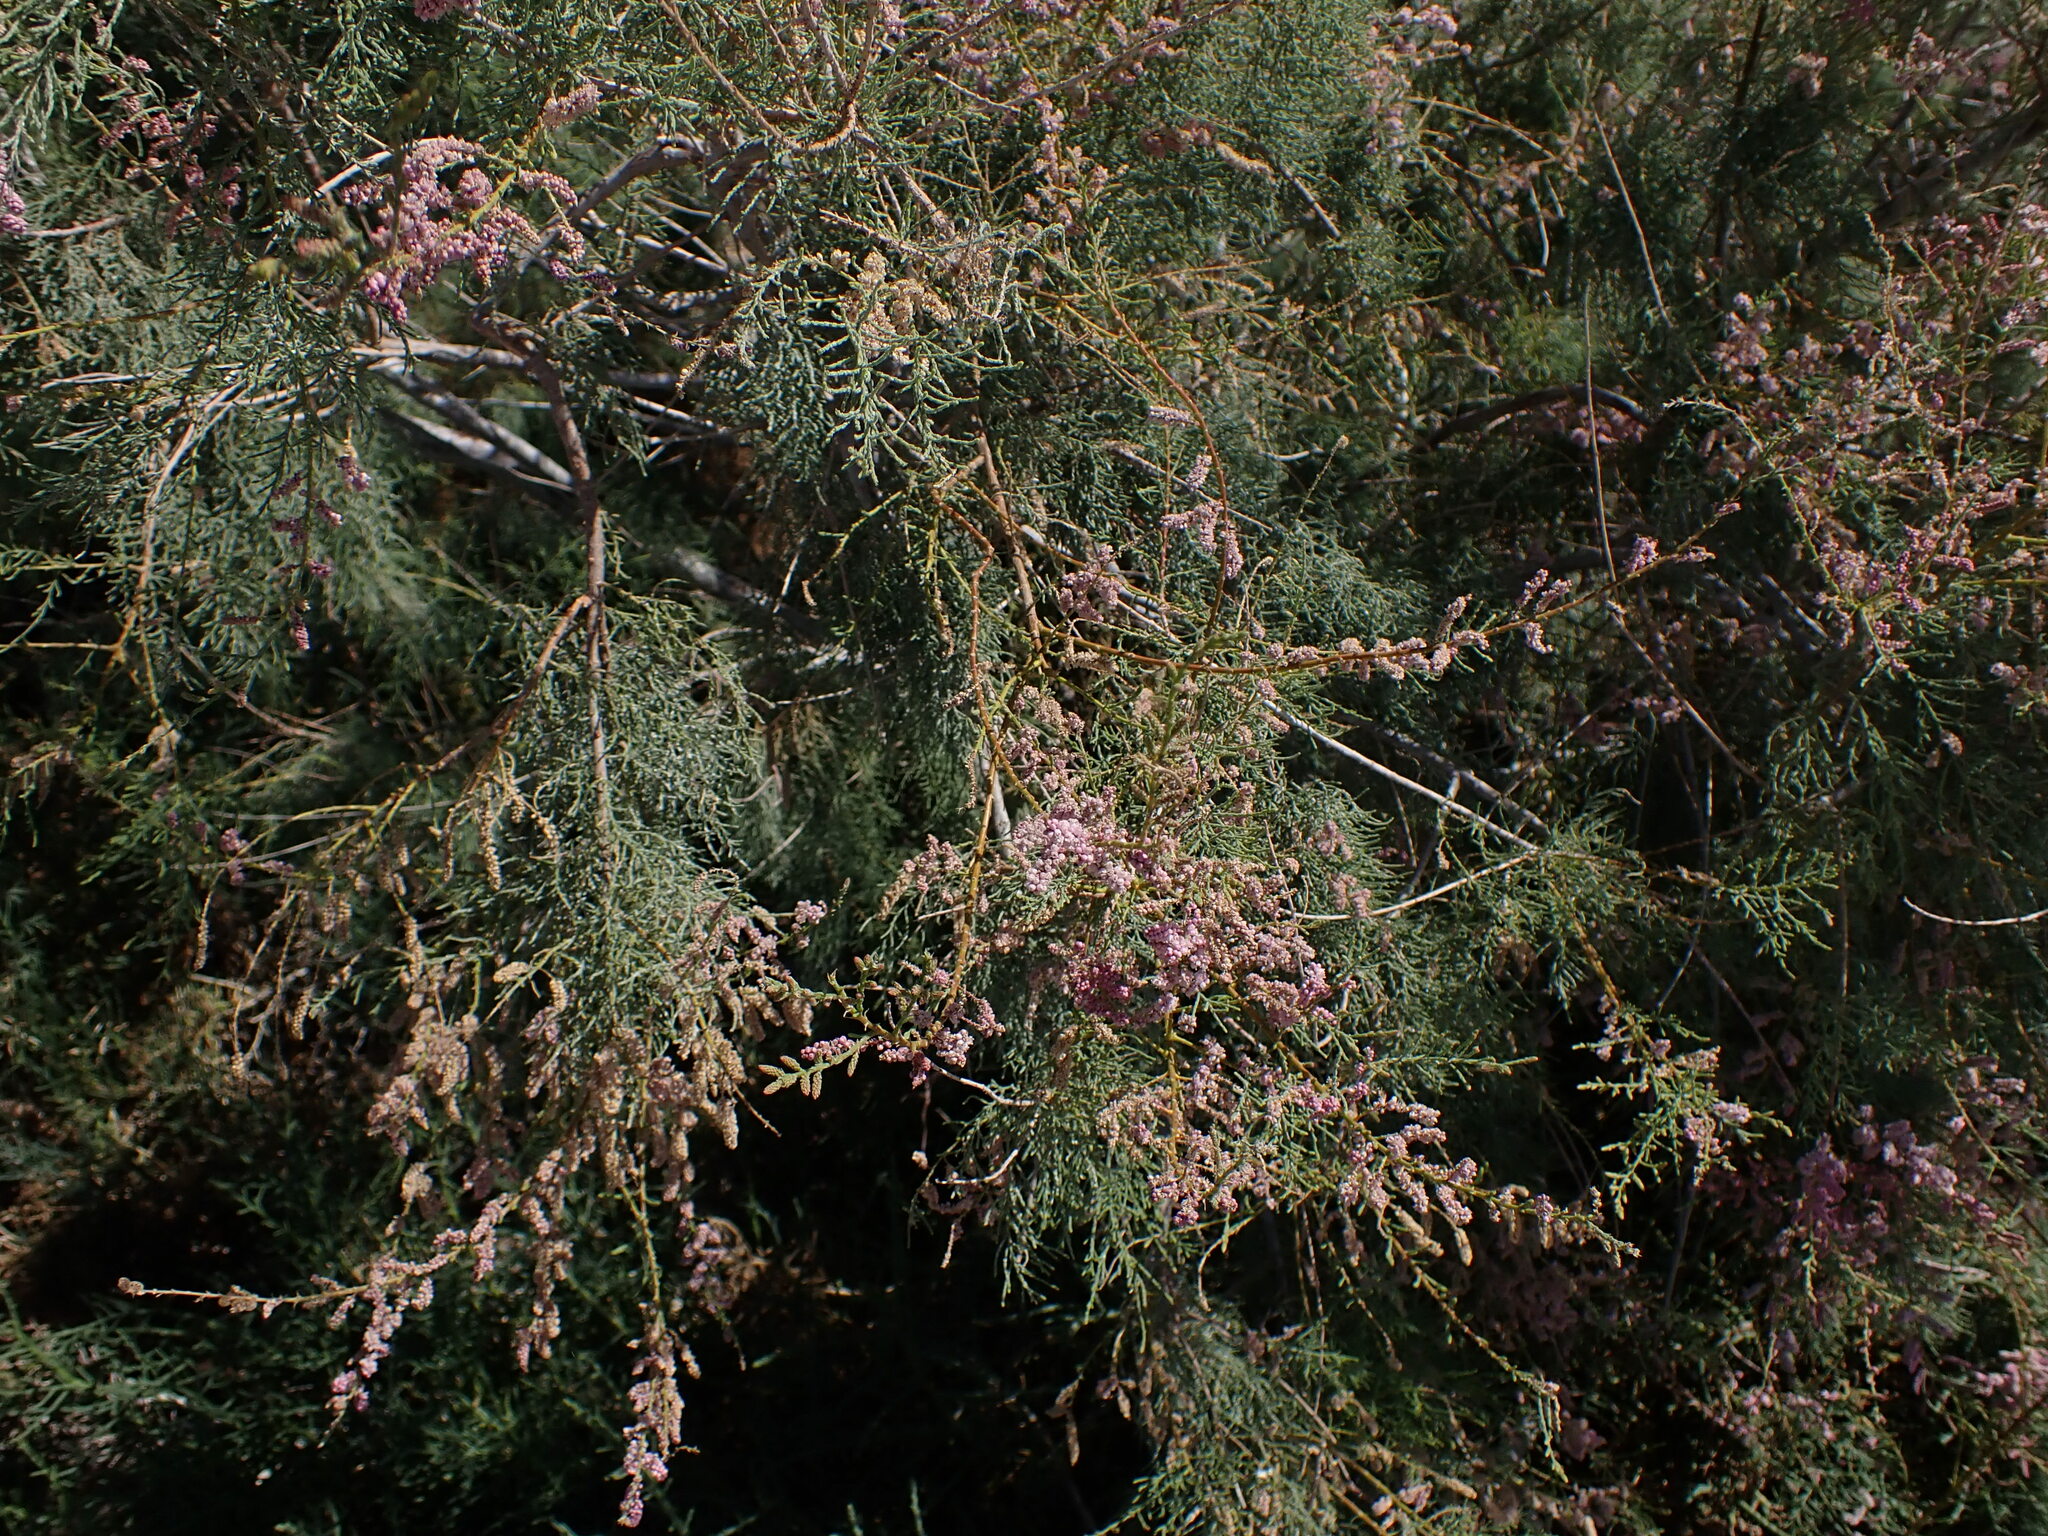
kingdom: Plantae
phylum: Tracheophyta
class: Magnoliopsida
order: Caryophyllales
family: Tamaricaceae
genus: Tamarix
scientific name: Tamarix
